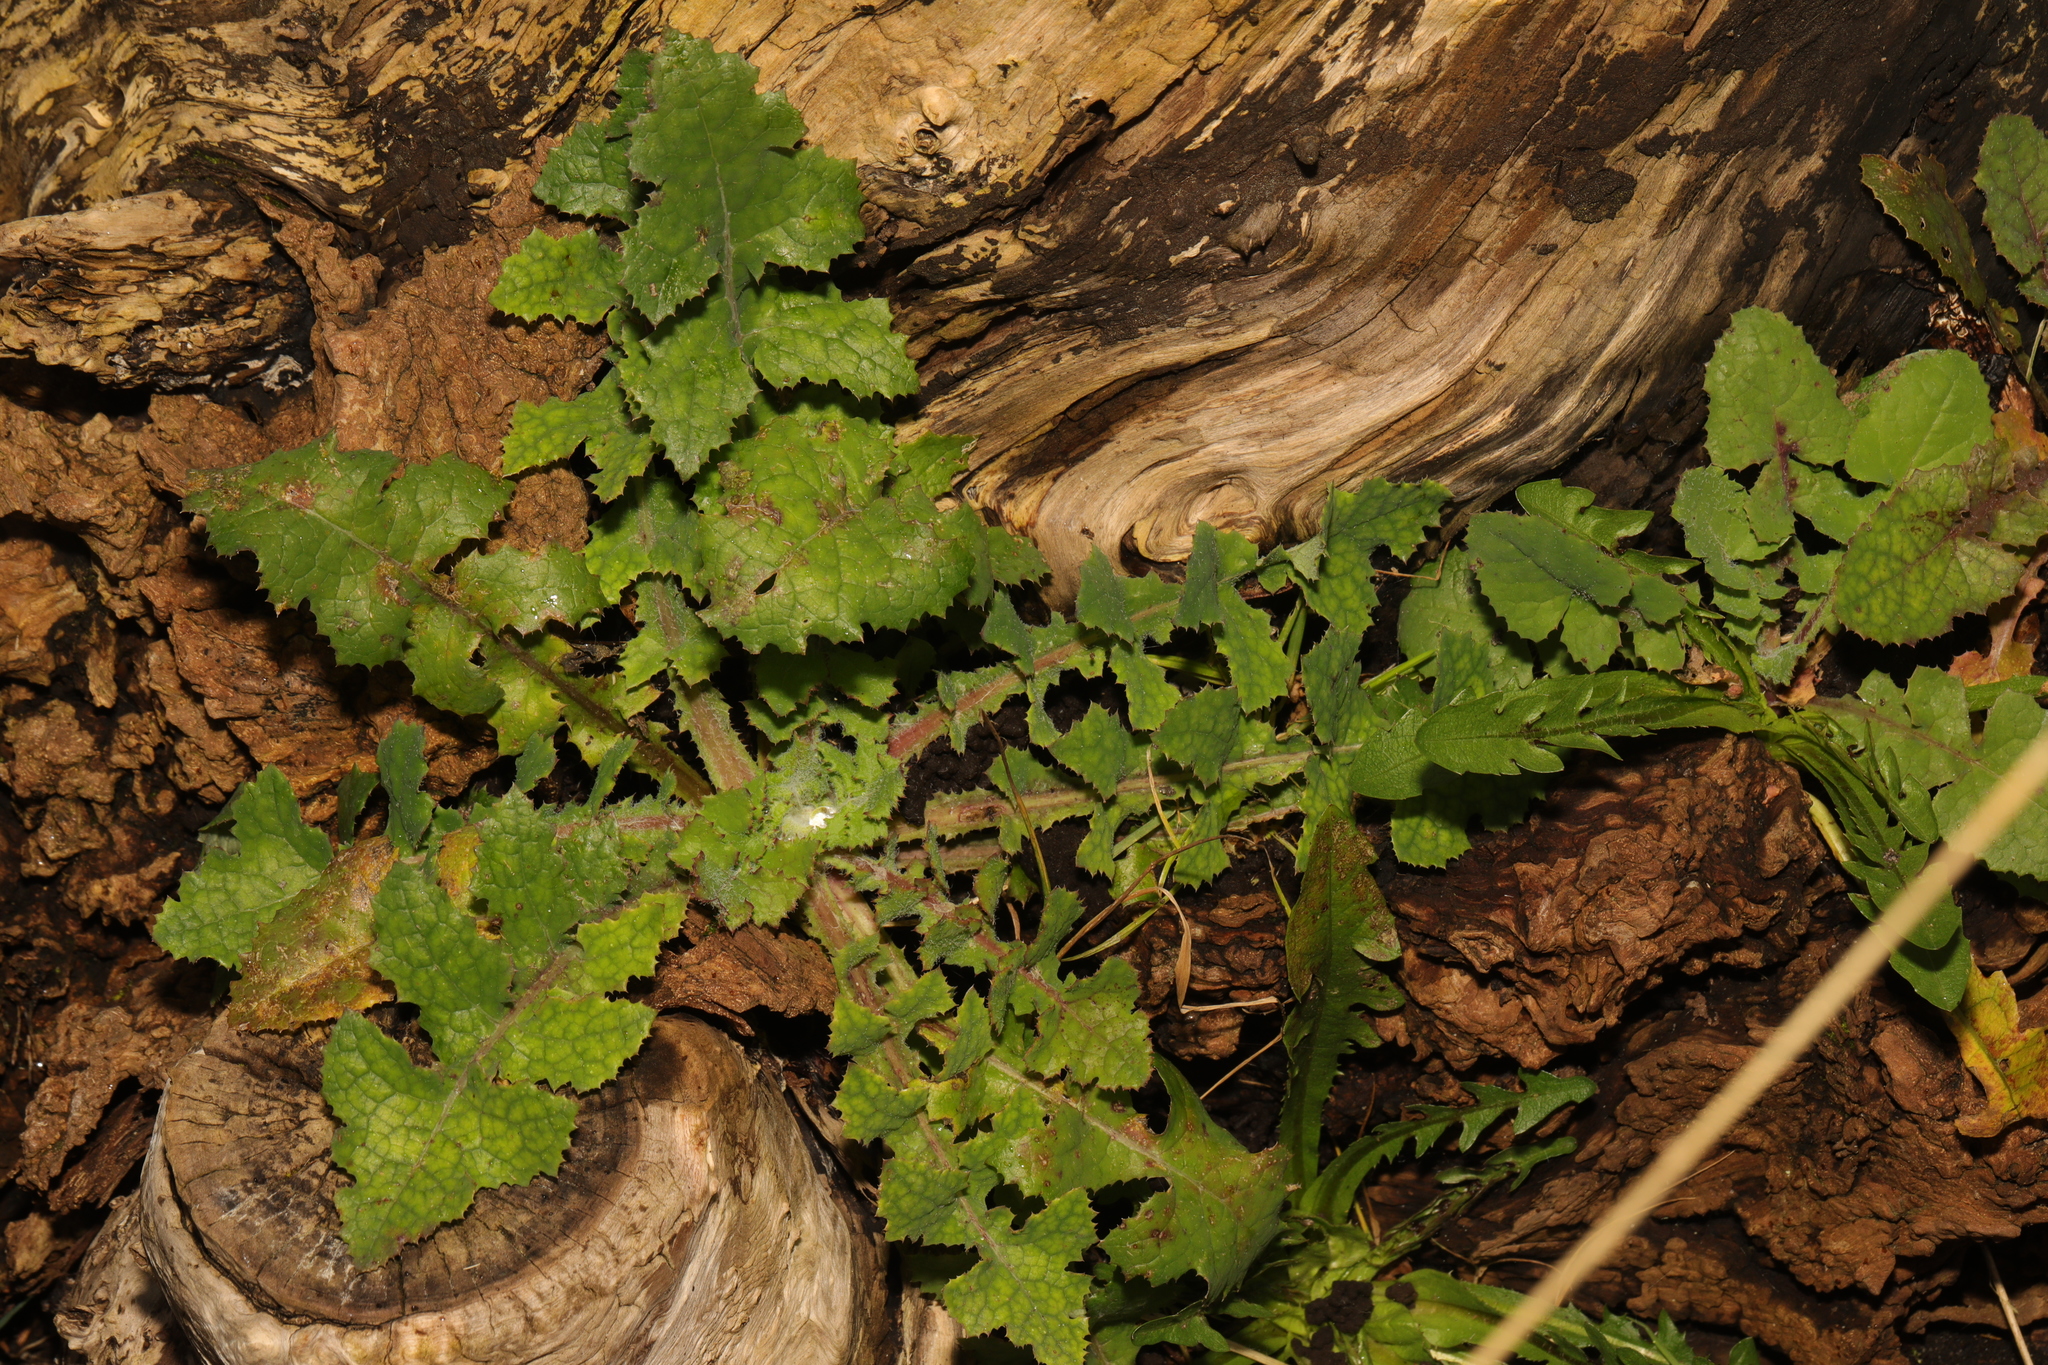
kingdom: Plantae
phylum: Tracheophyta
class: Magnoliopsida
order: Asterales
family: Asteraceae
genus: Sonchus
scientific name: Sonchus oleraceus
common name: Common sowthistle
